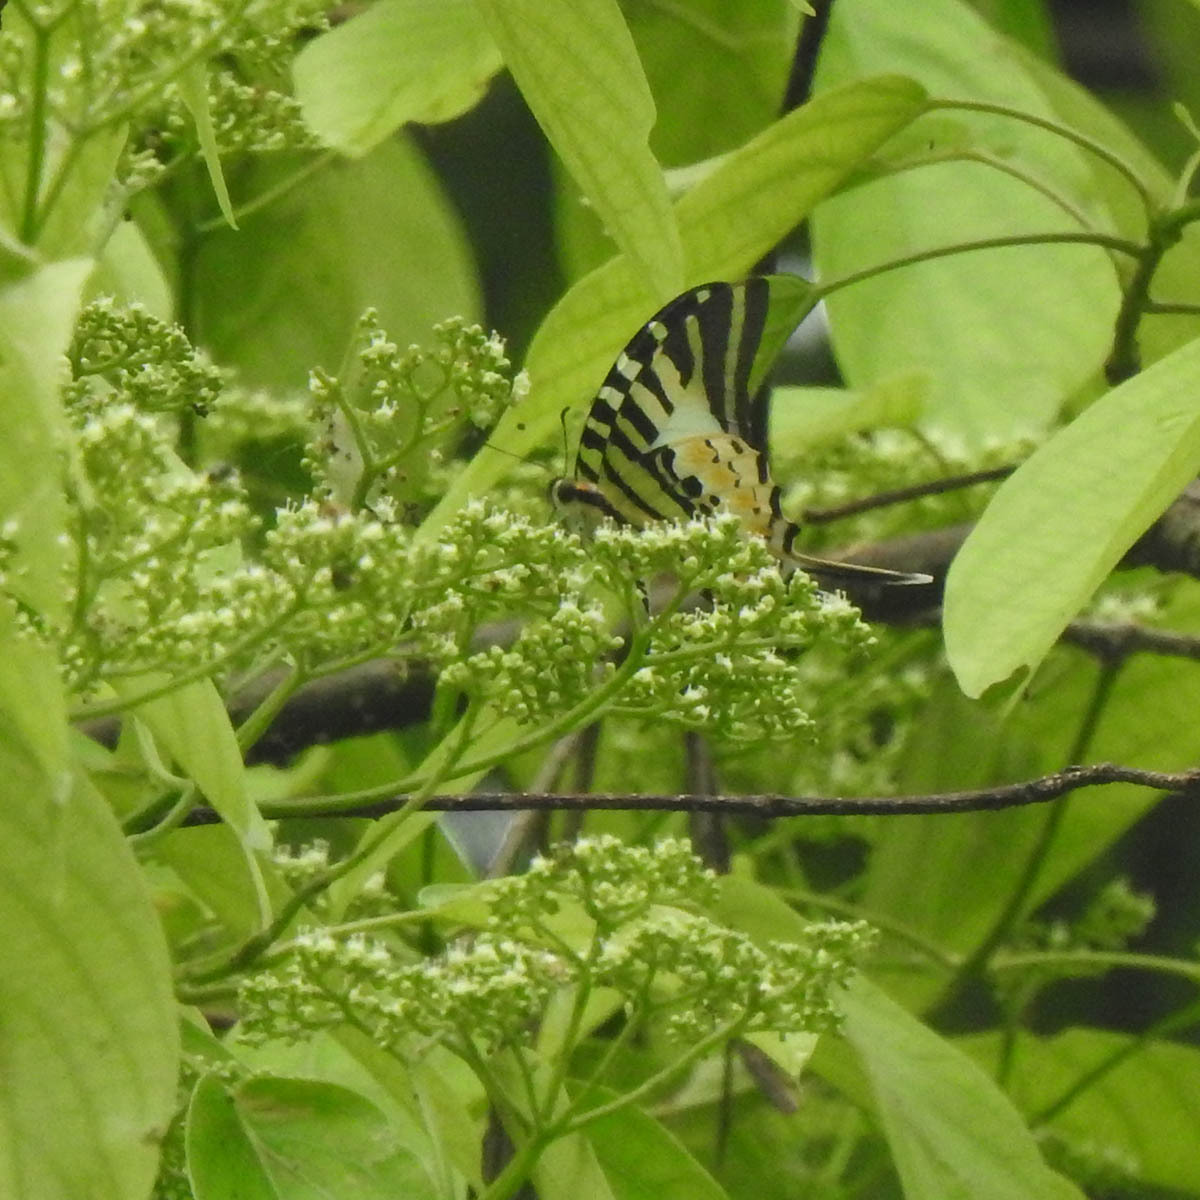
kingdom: Animalia
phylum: Arthropoda
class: Insecta
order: Lepidoptera
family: Papilionidae
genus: Graphium
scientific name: Graphium antiphates
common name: Fivebar swordtail
